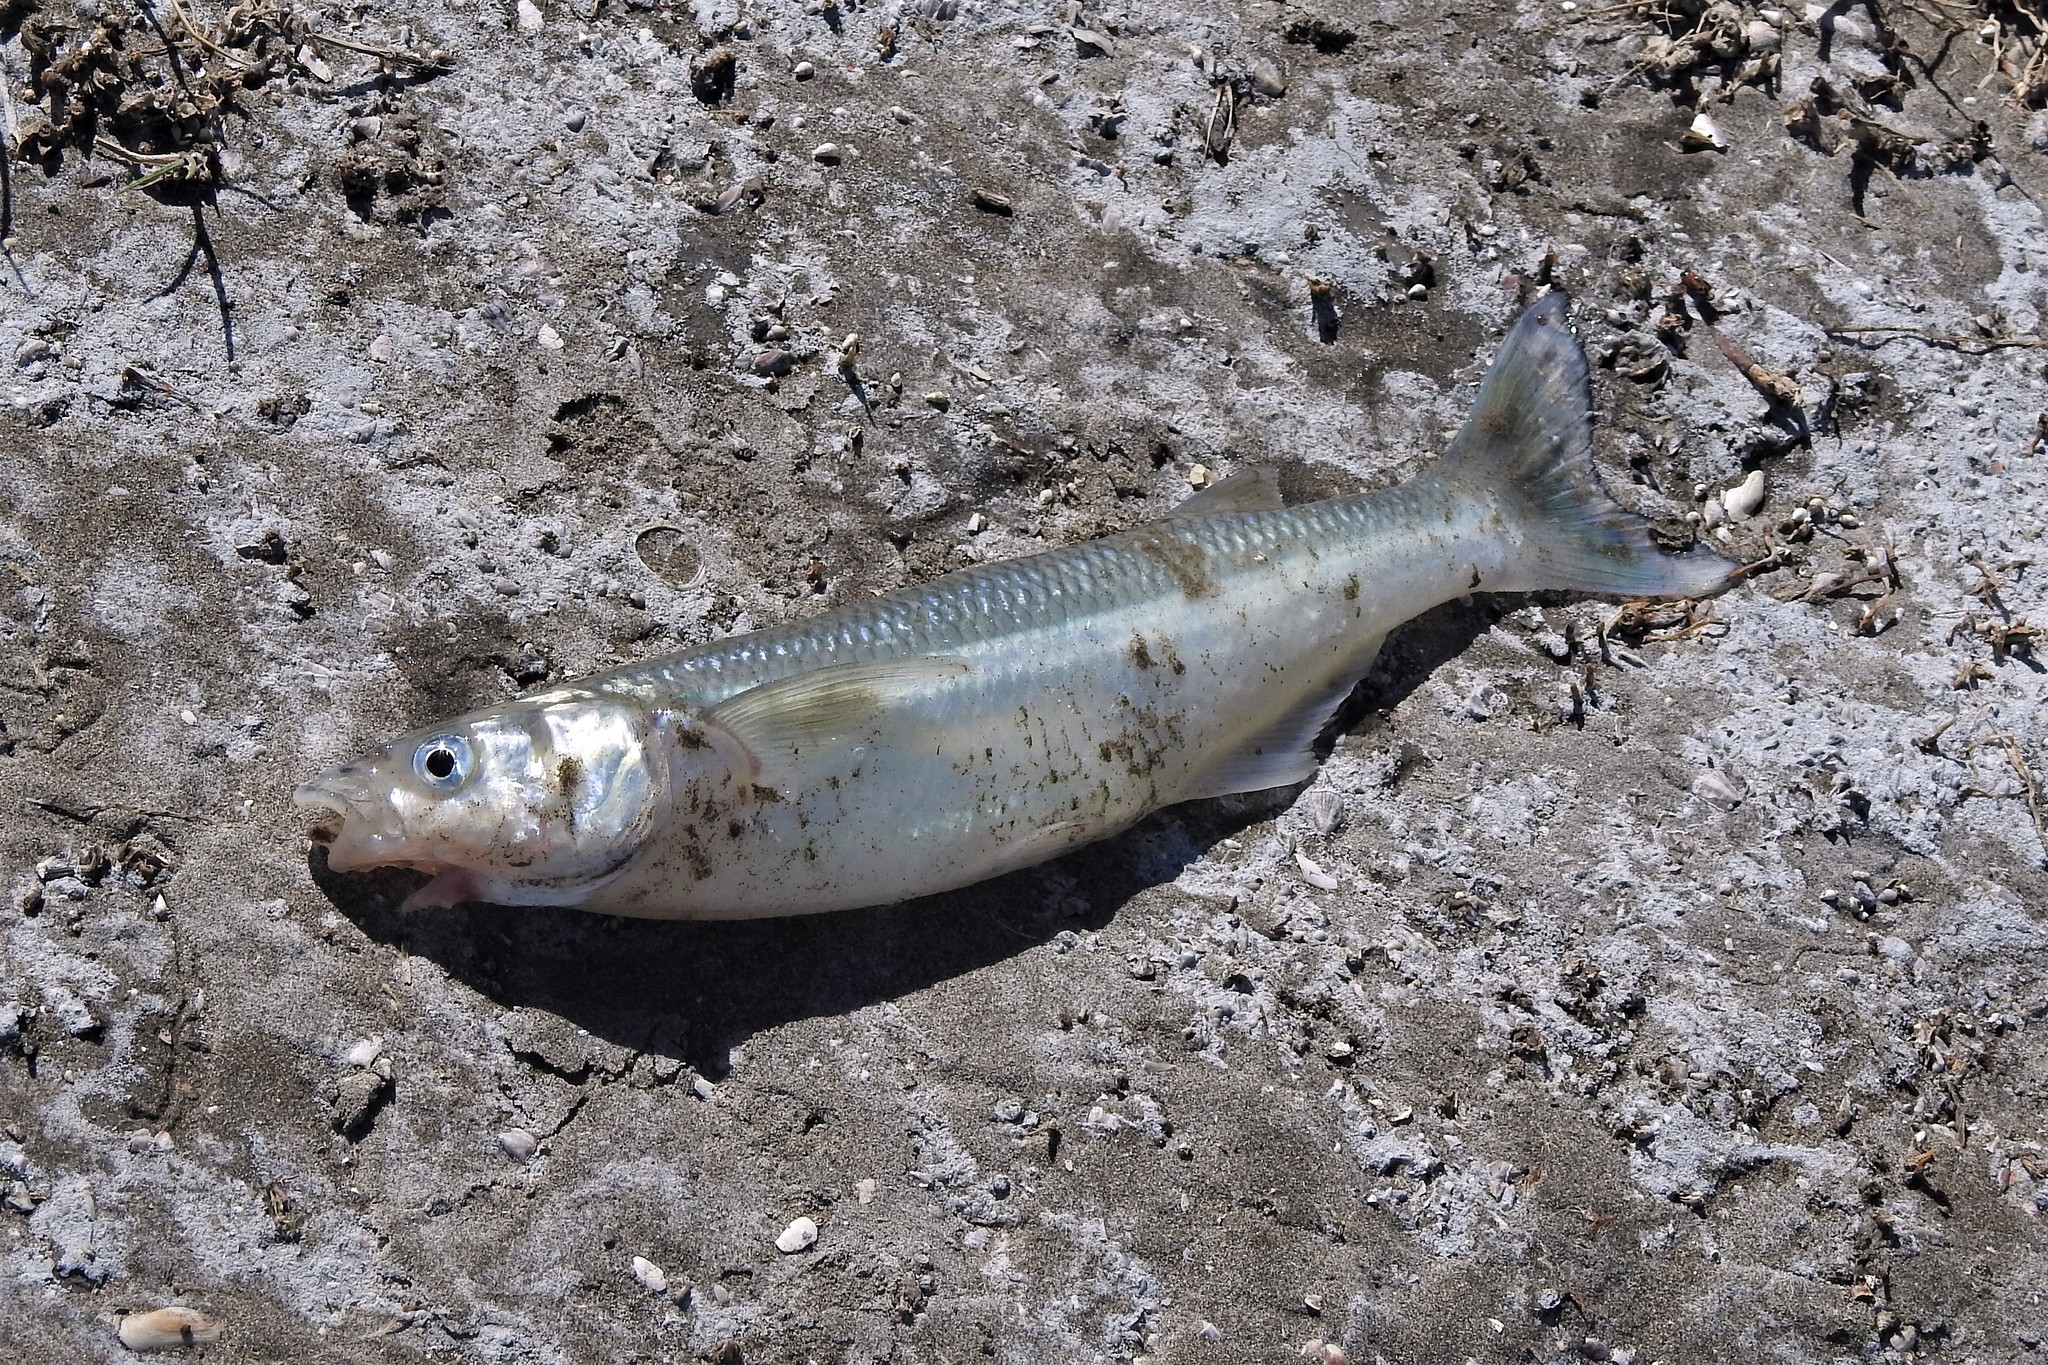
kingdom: Animalia
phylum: Chordata
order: Atheriniformes
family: Atherinopsidae
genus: Odontesthes
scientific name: Odontesthes argentinensis
